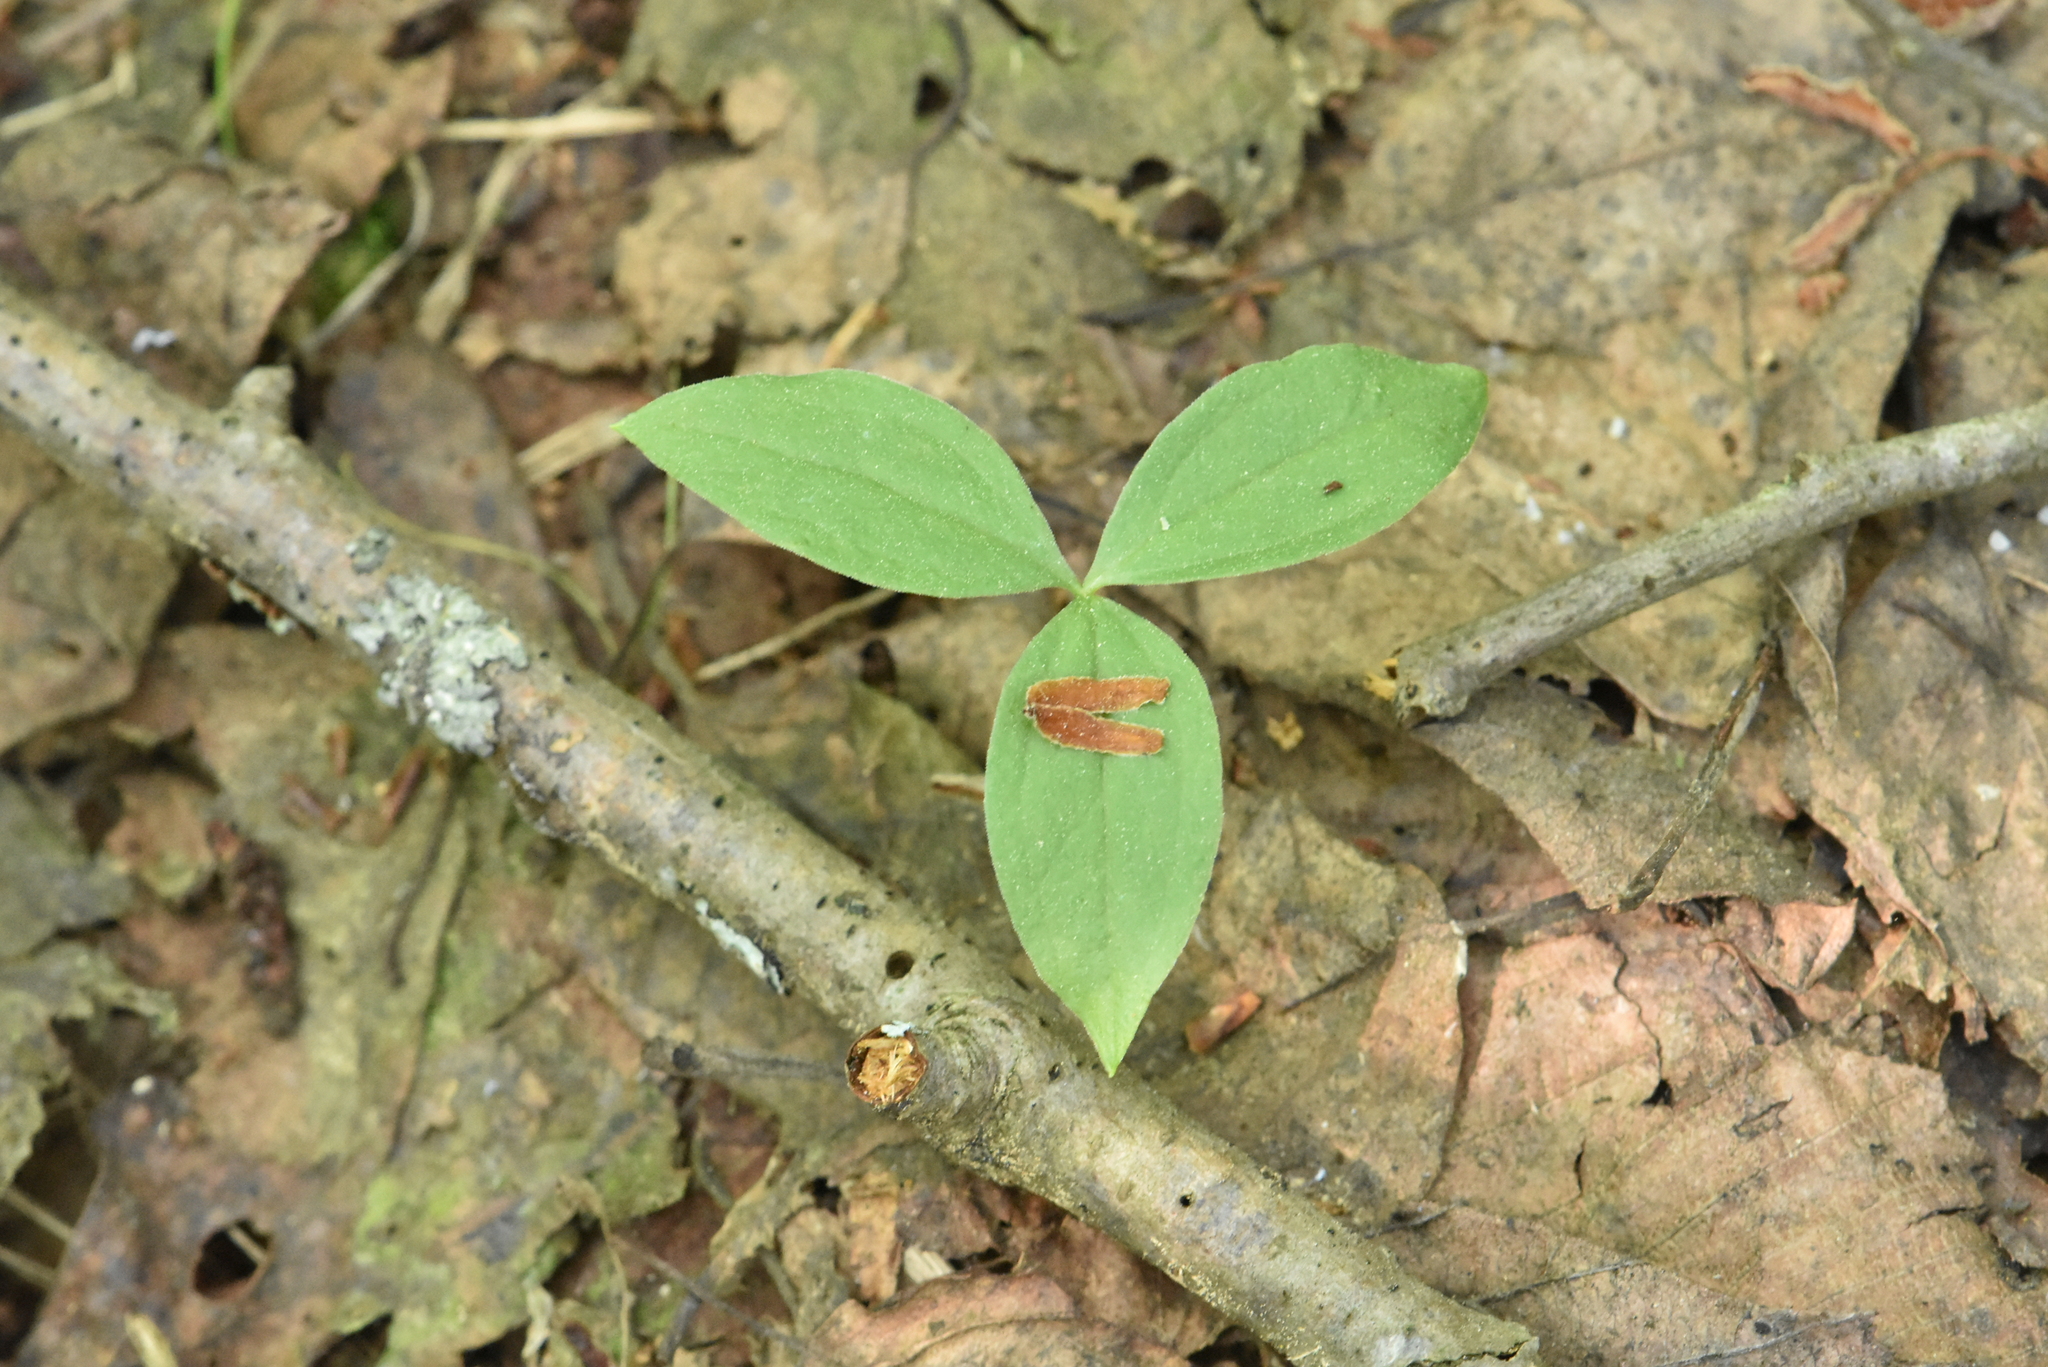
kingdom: Plantae
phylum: Tracheophyta
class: Liliopsida
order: Liliales
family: Melanthiaceae
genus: Paris
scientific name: Paris quadrifolia
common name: Herb-paris
